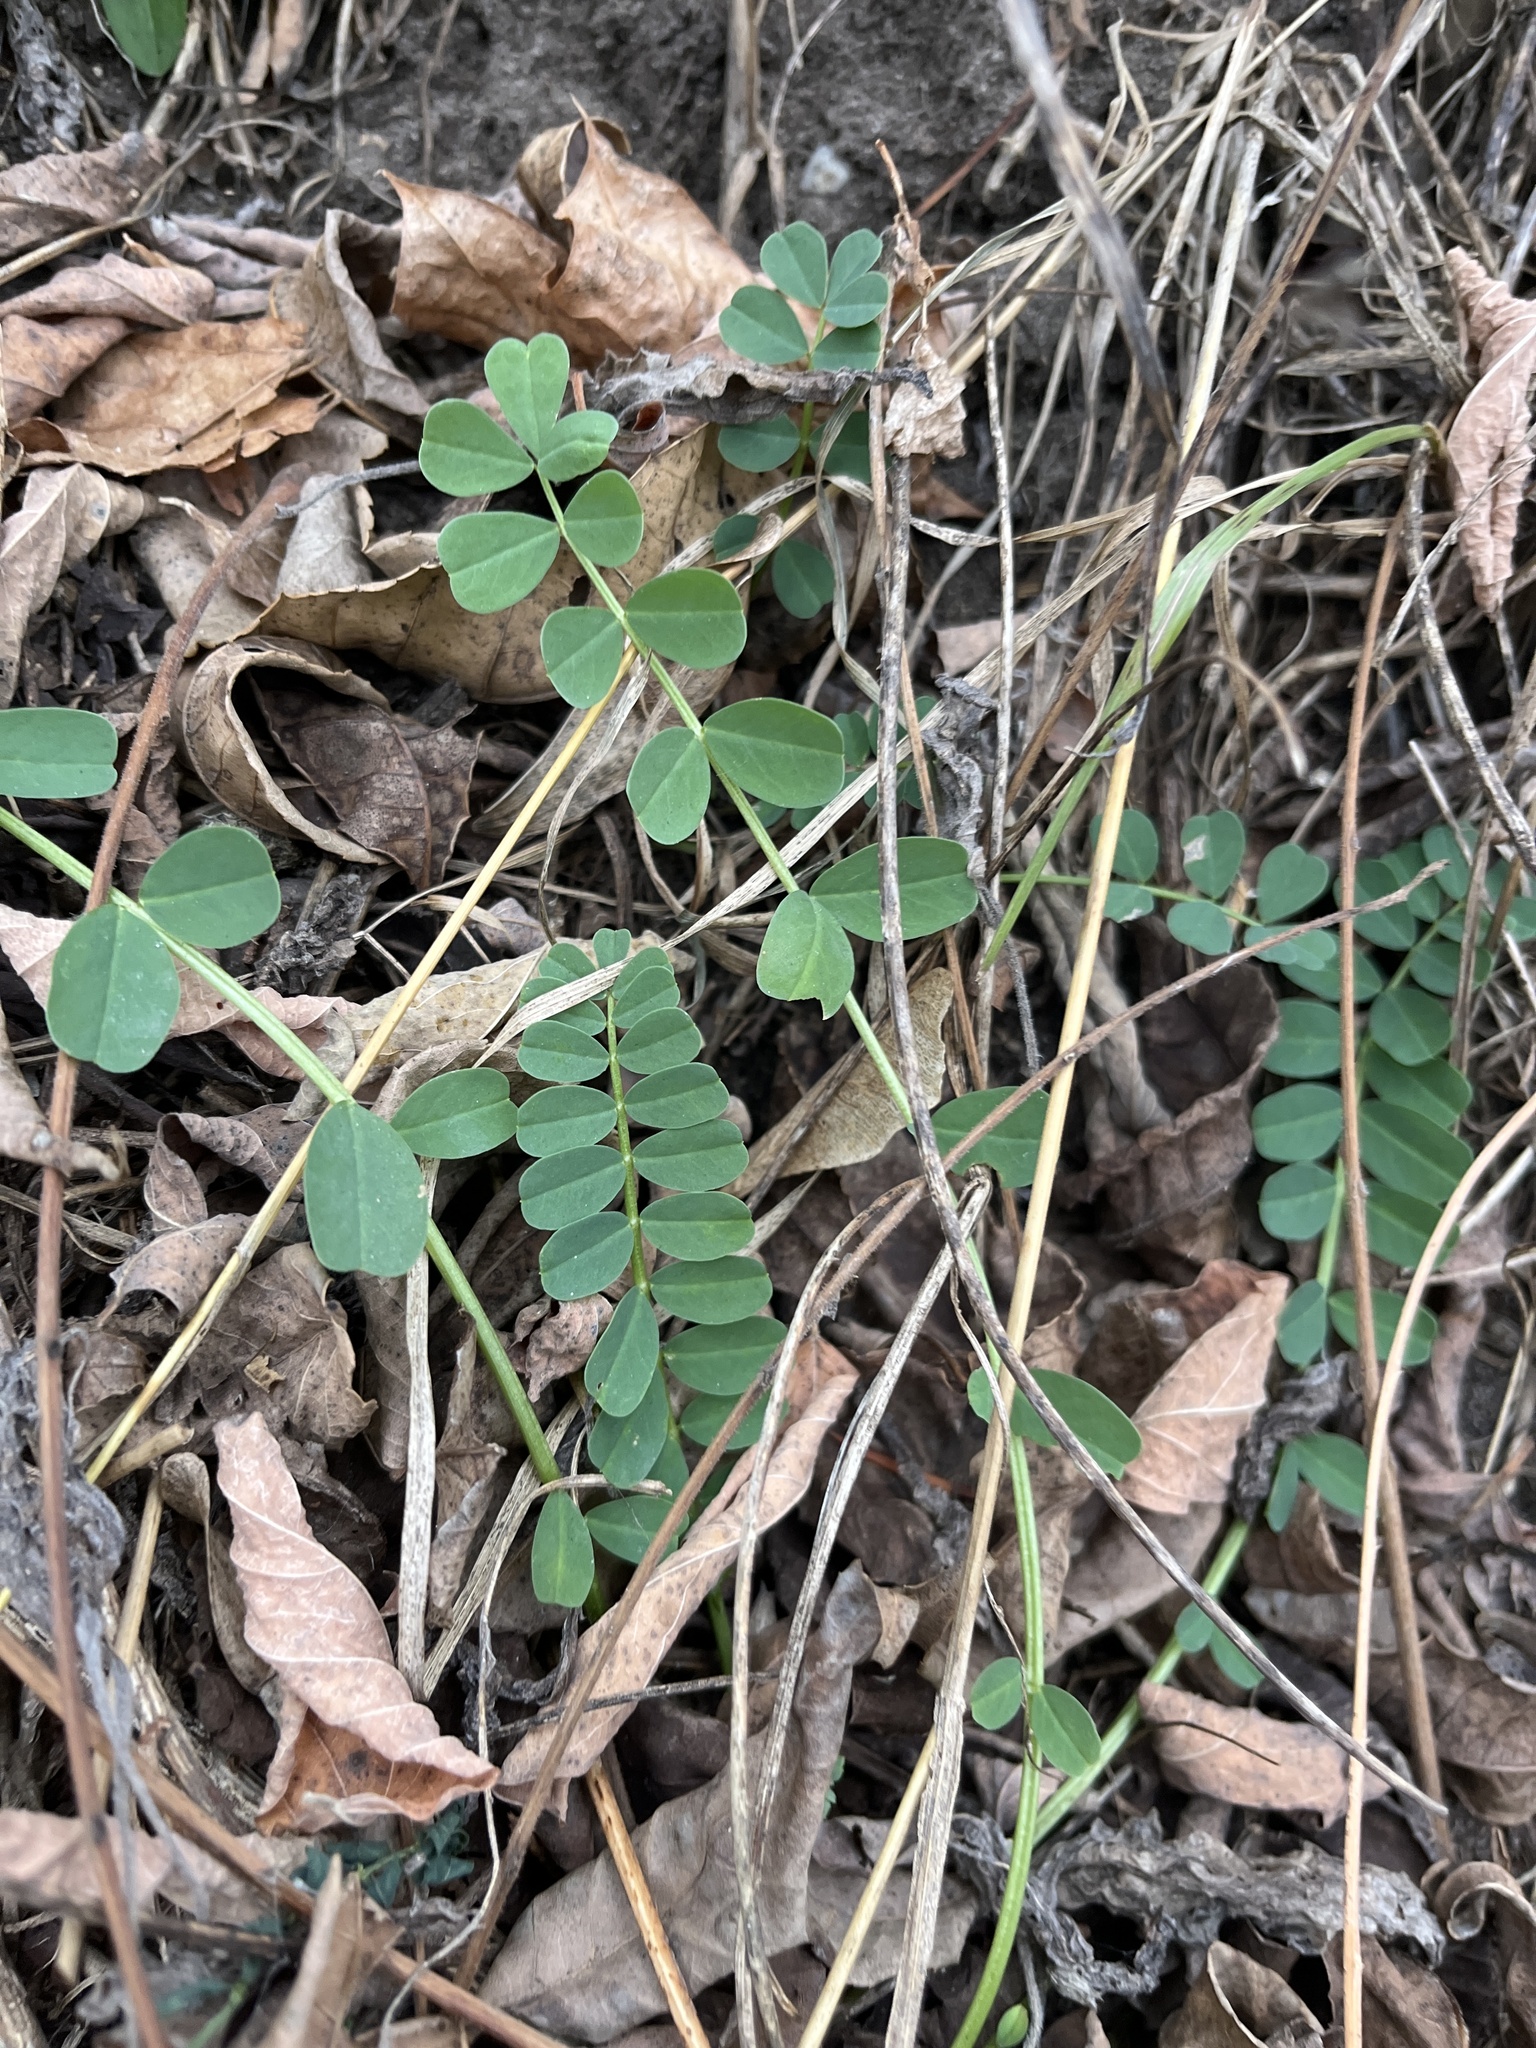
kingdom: Plantae
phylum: Tracheophyta
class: Magnoliopsida
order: Fabales
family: Fabaceae
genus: Coronilla
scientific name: Coronilla varia
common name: Crownvetch
